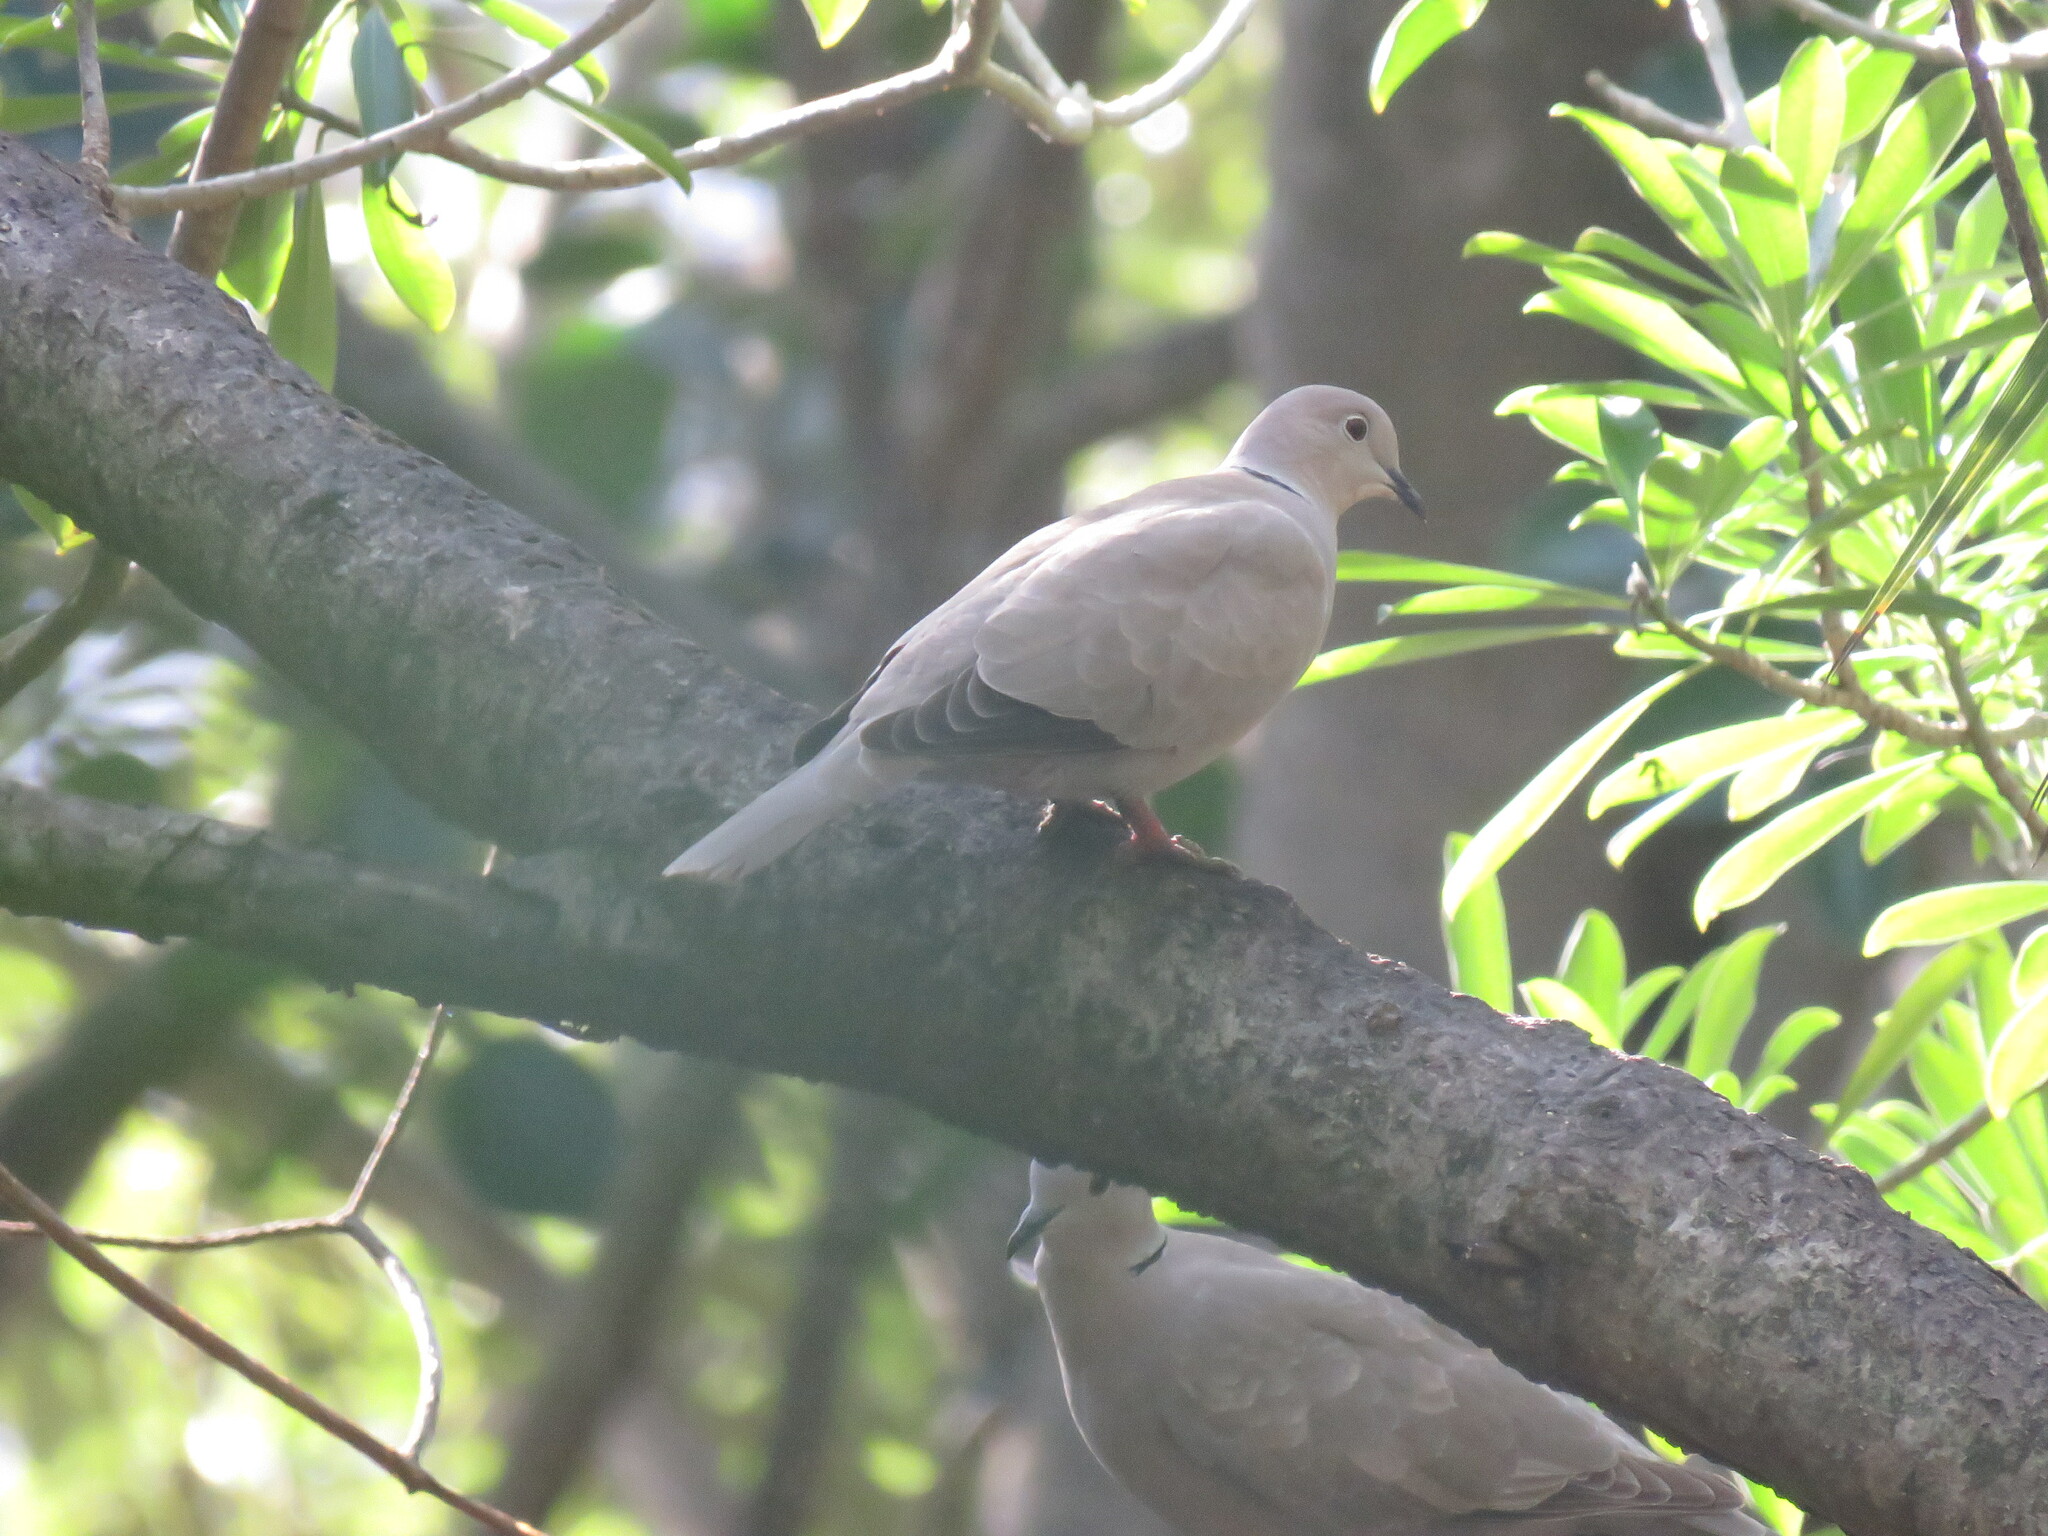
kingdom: Animalia
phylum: Chordata
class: Aves
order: Columbiformes
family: Columbidae
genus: Streptopelia
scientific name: Streptopelia decaocto
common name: Eurasian collared dove
